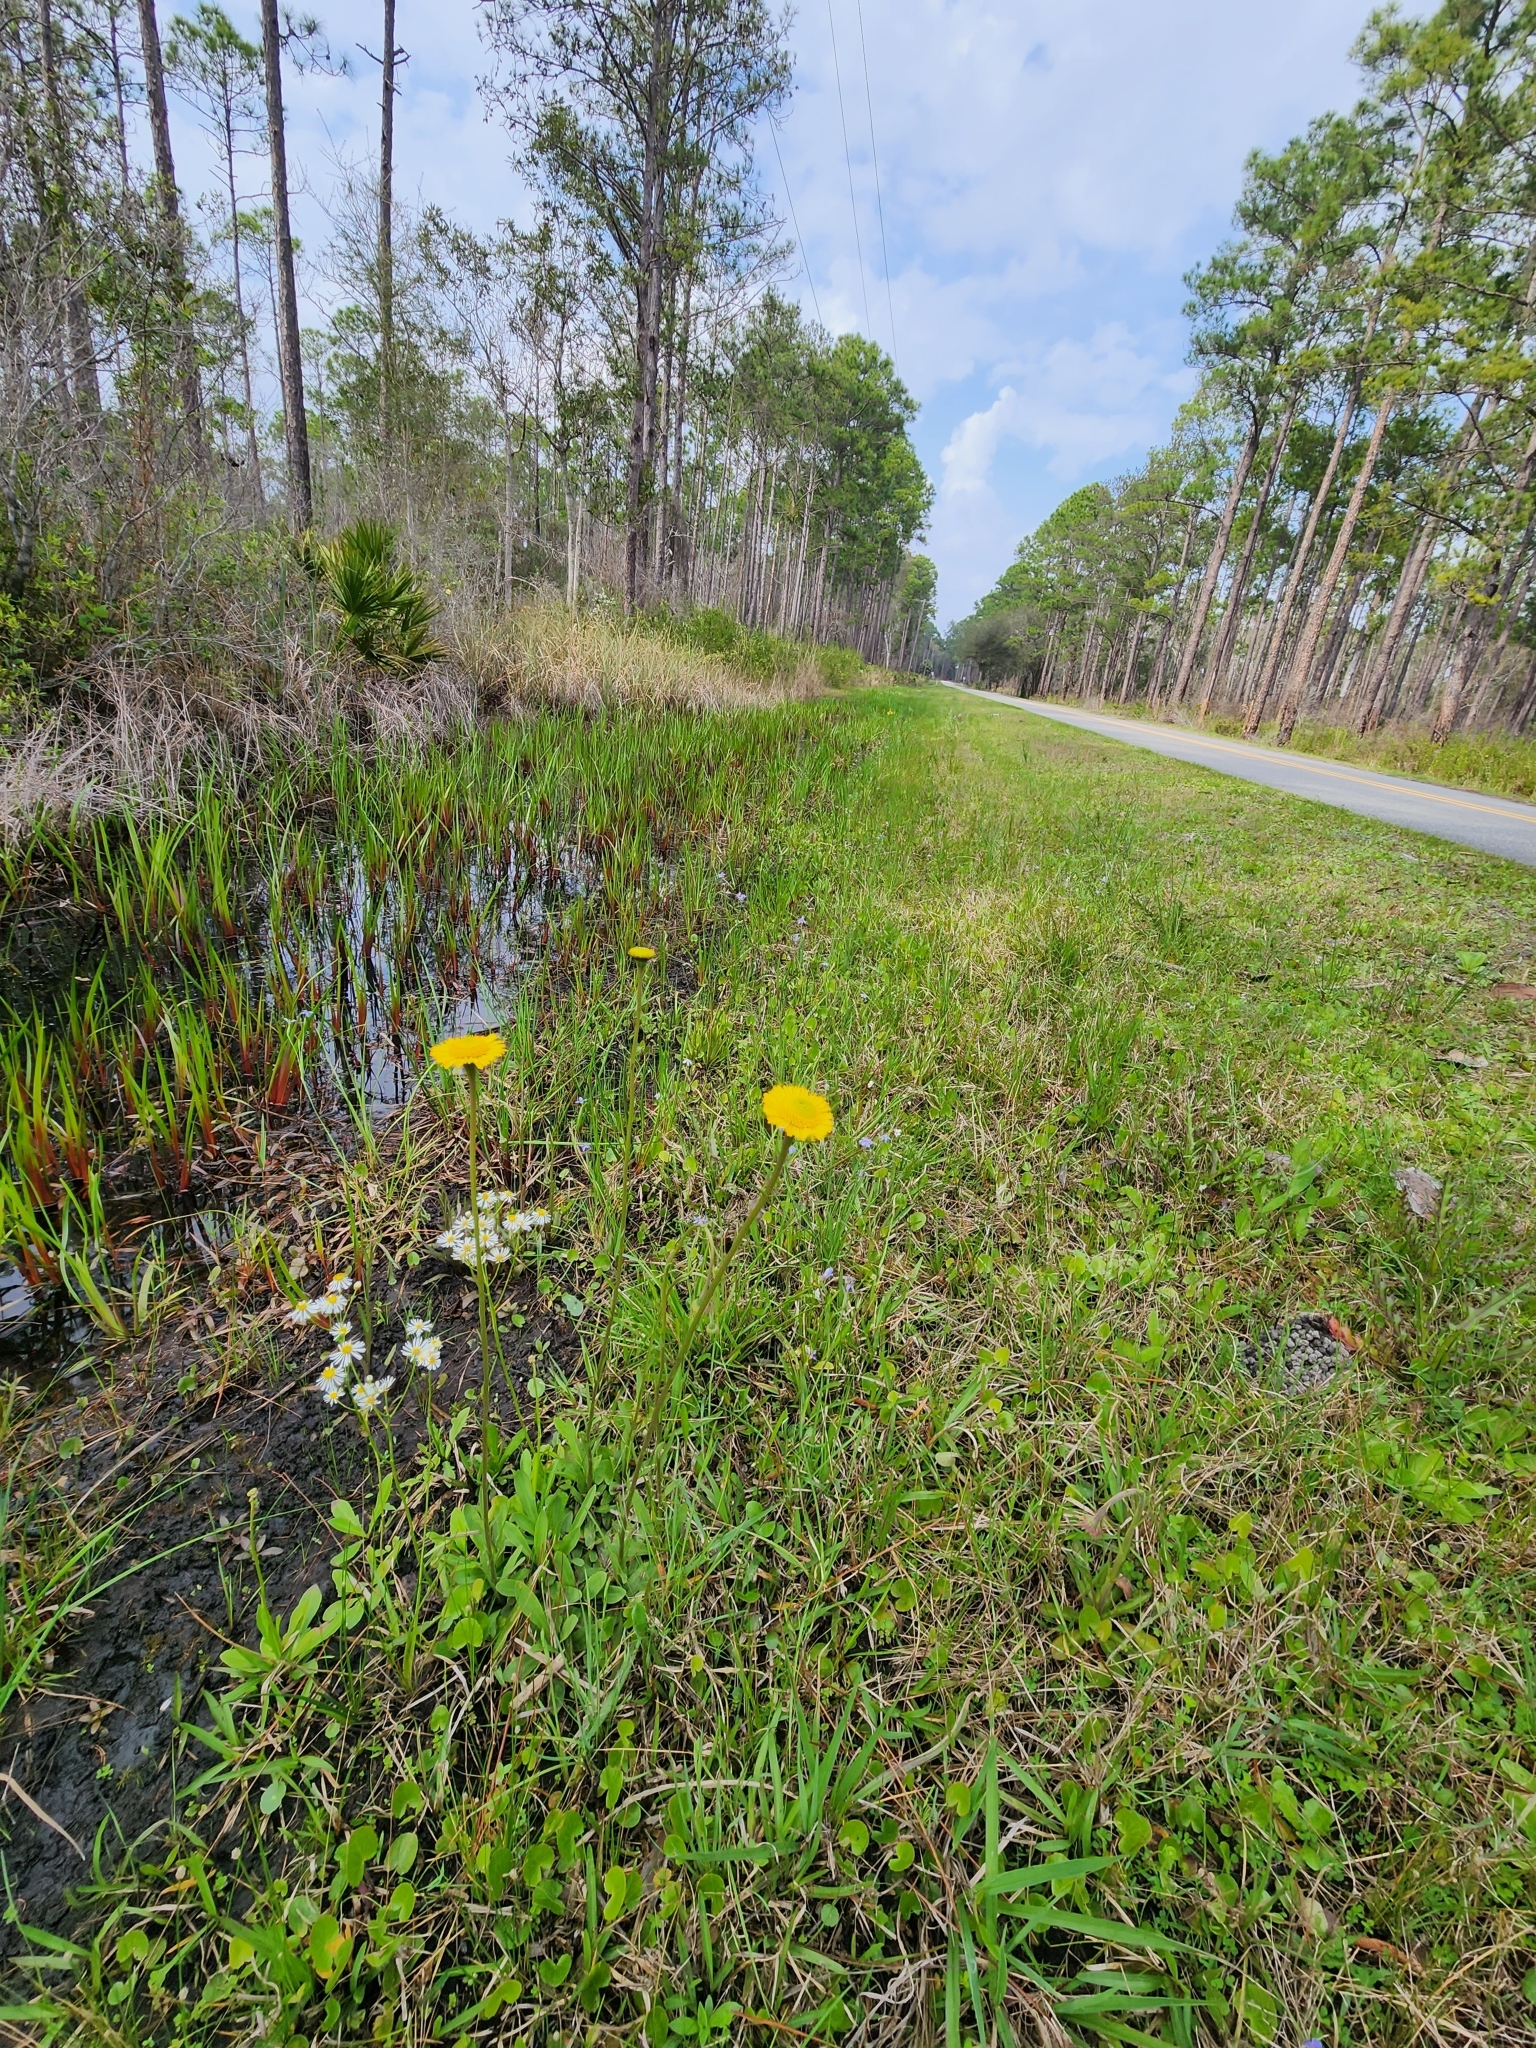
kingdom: Plantae
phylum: Tracheophyta
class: Magnoliopsida
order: Asterales
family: Asteraceae
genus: Helenium
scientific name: Helenium pinnatifidum
